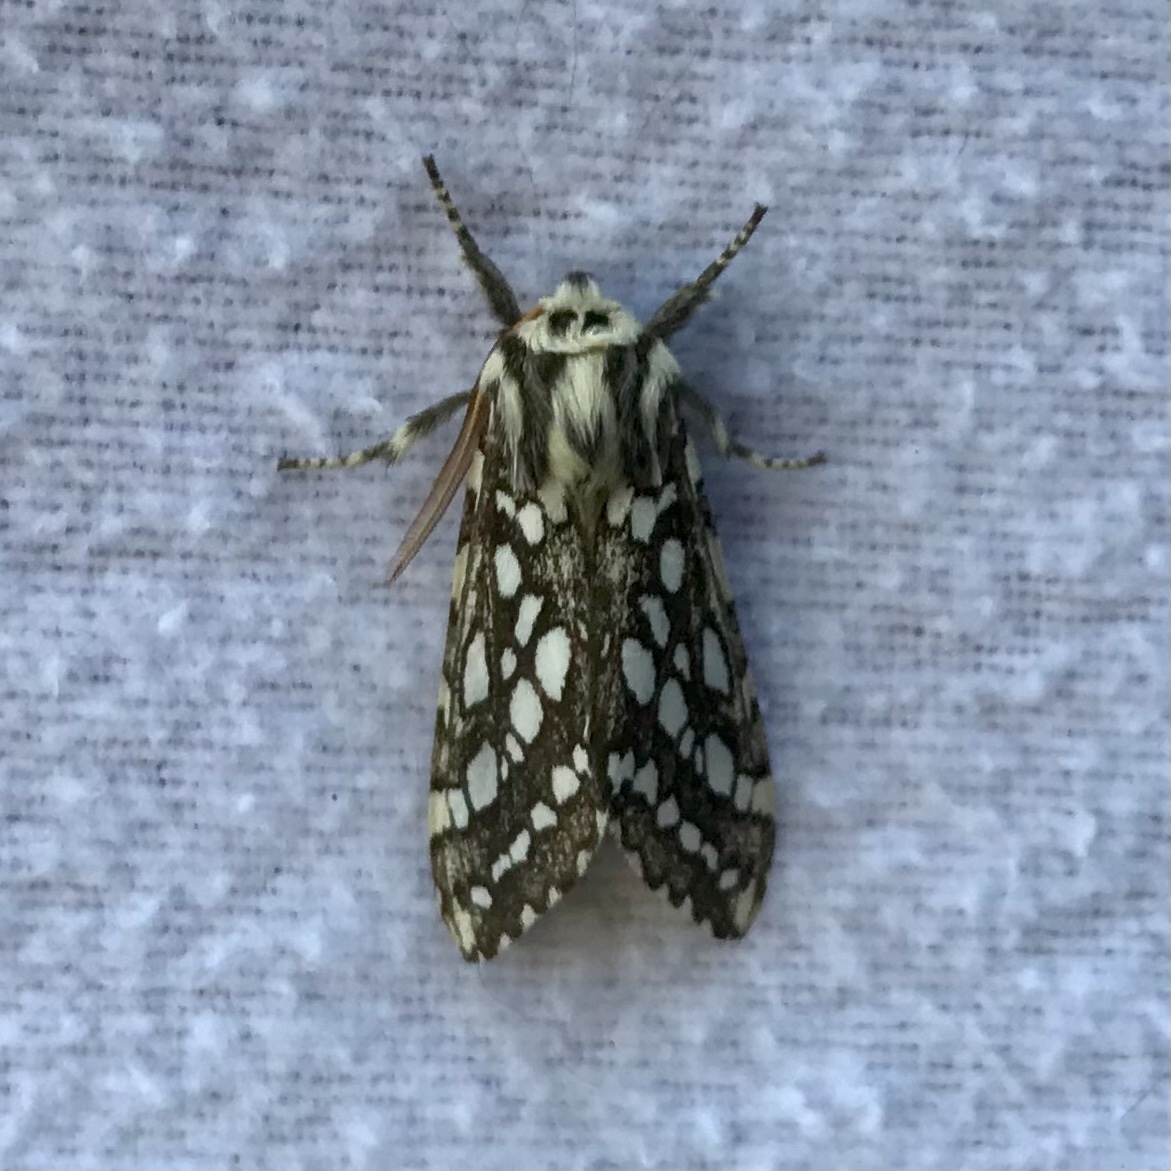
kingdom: Animalia
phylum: Arthropoda
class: Insecta
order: Lepidoptera
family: Erebidae
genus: Lophocampa
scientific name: Lophocampa argentata
